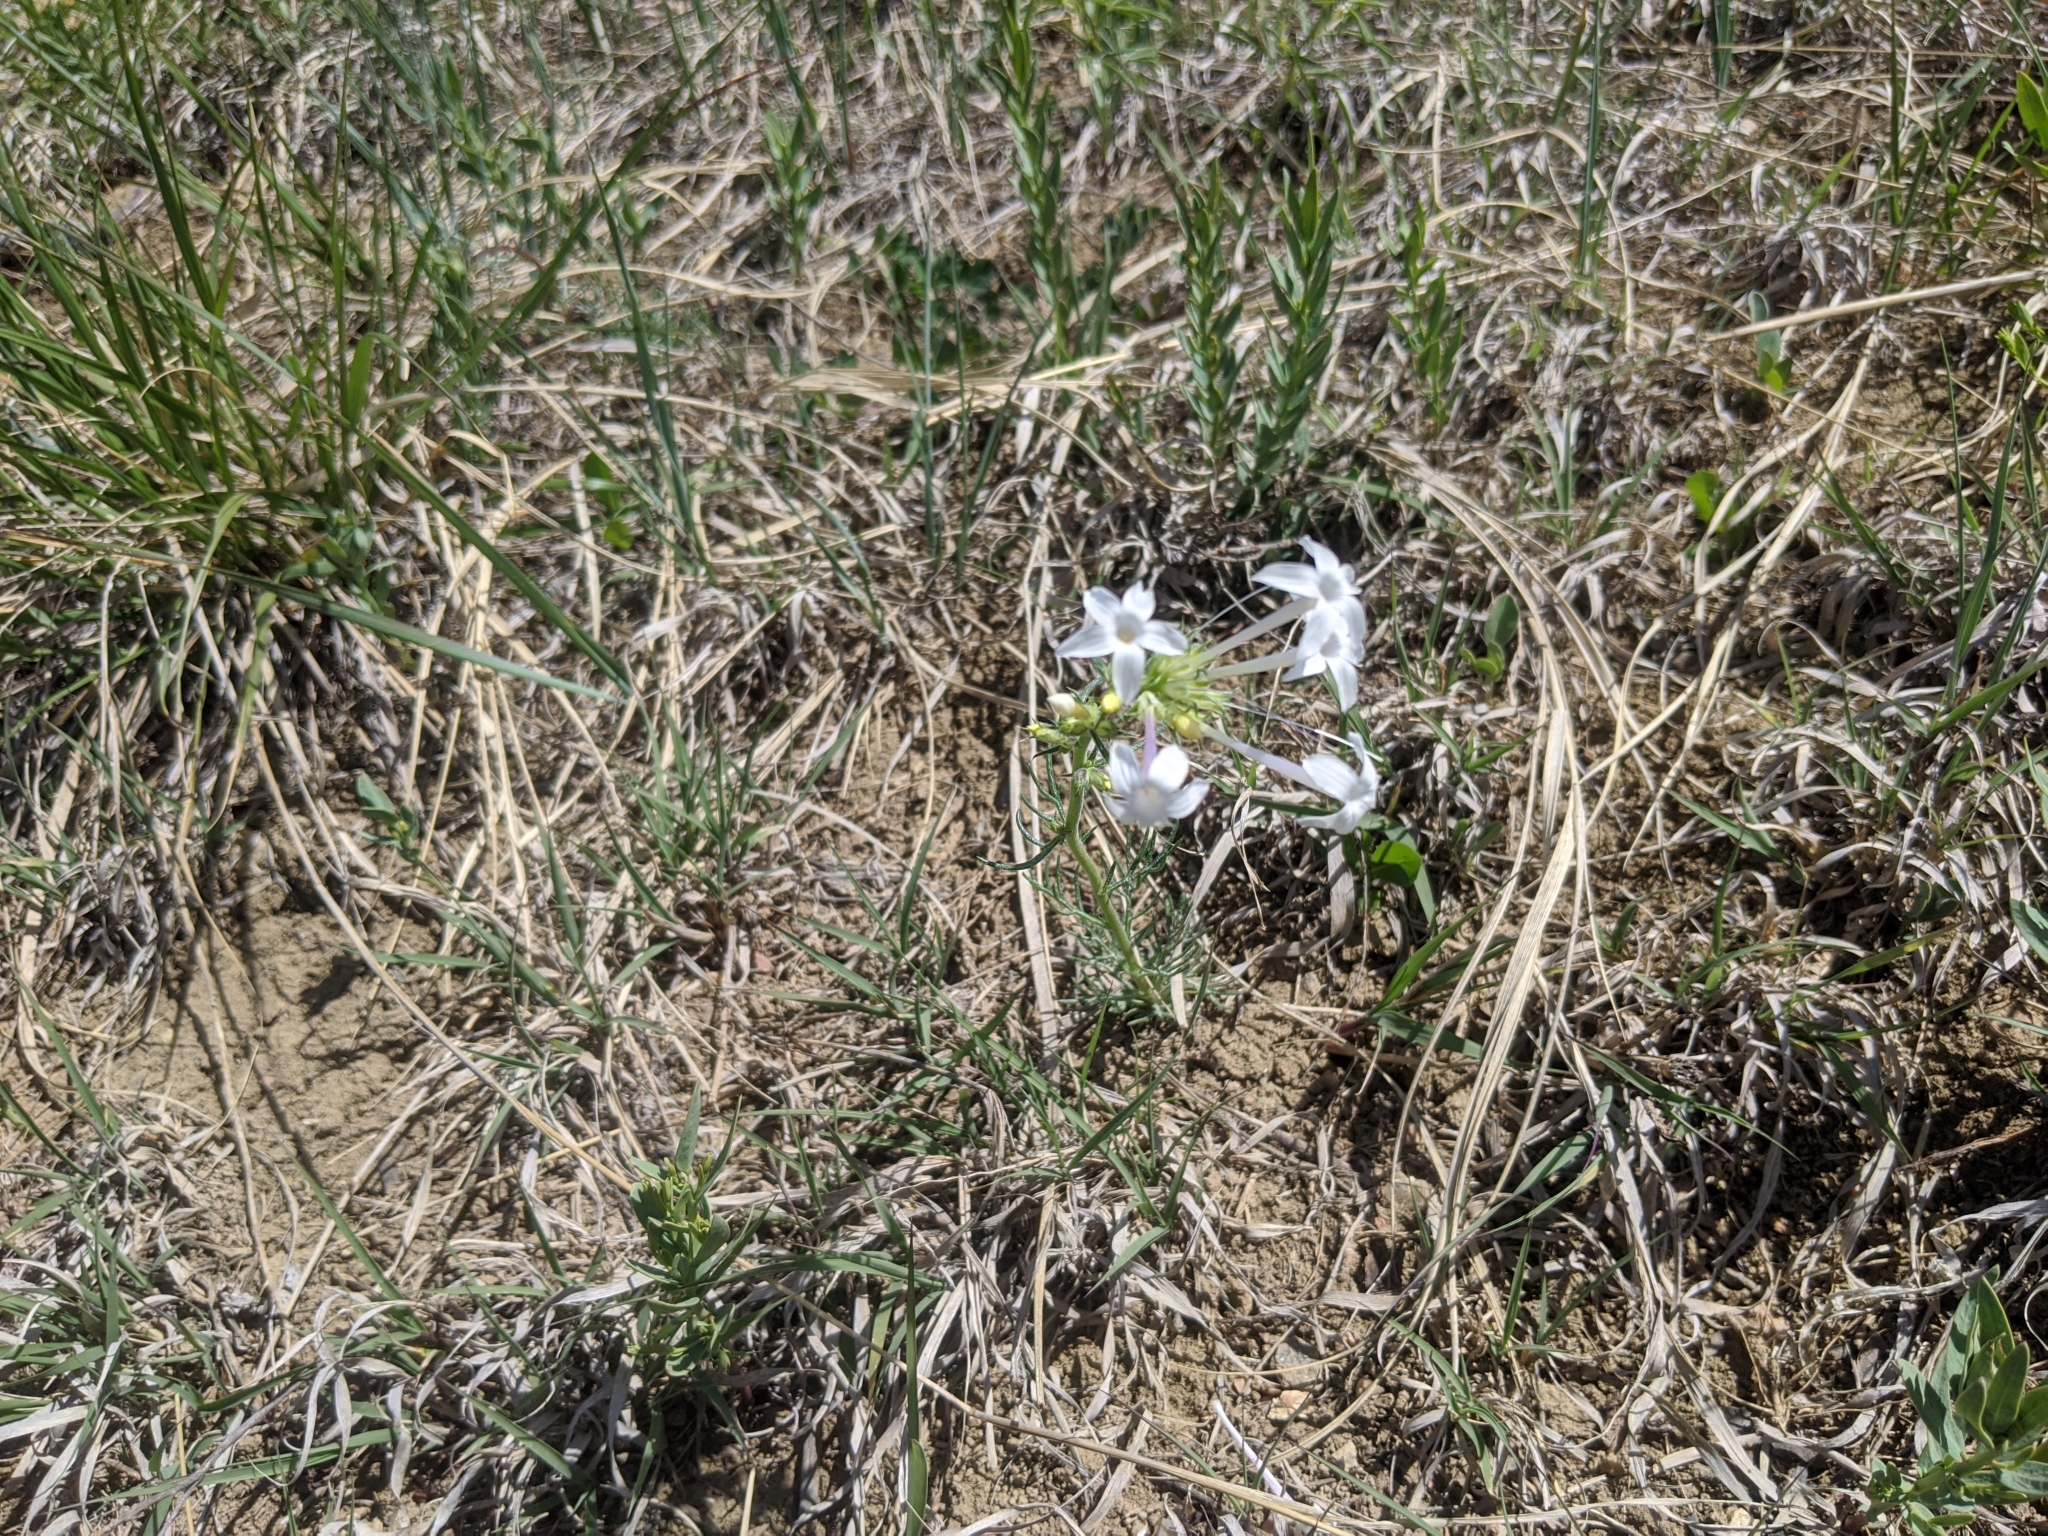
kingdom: Plantae
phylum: Tracheophyta
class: Magnoliopsida
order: Ericales
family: Polemoniaceae
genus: Ipomopsis
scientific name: Ipomopsis aggregata
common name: Scarlet gilia
